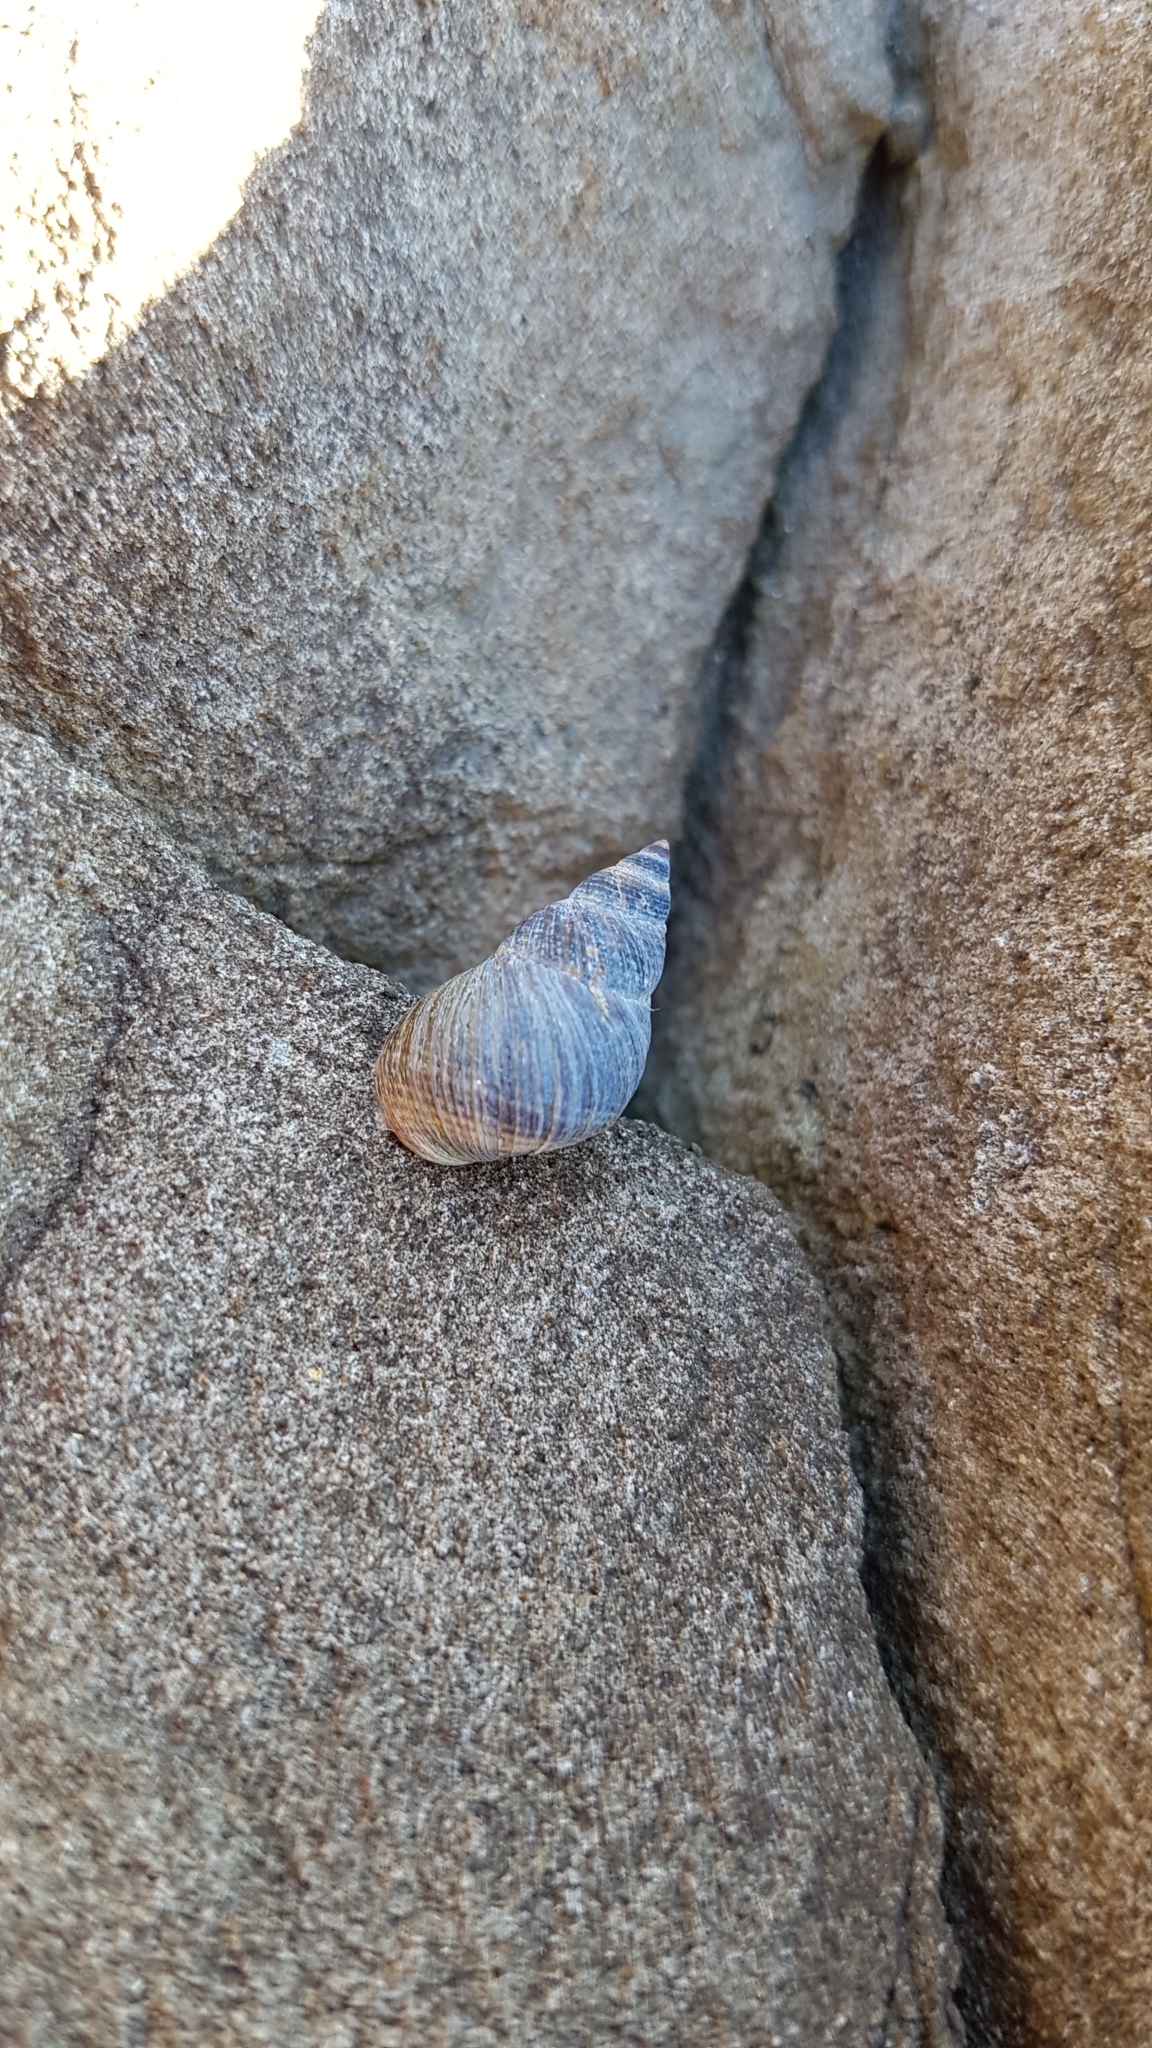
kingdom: Animalia
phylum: Mollusca
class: Gastropoda
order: Littorinimorpha
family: Littorinidae
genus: Austrolittorina
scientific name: Austrolittorina cincta
